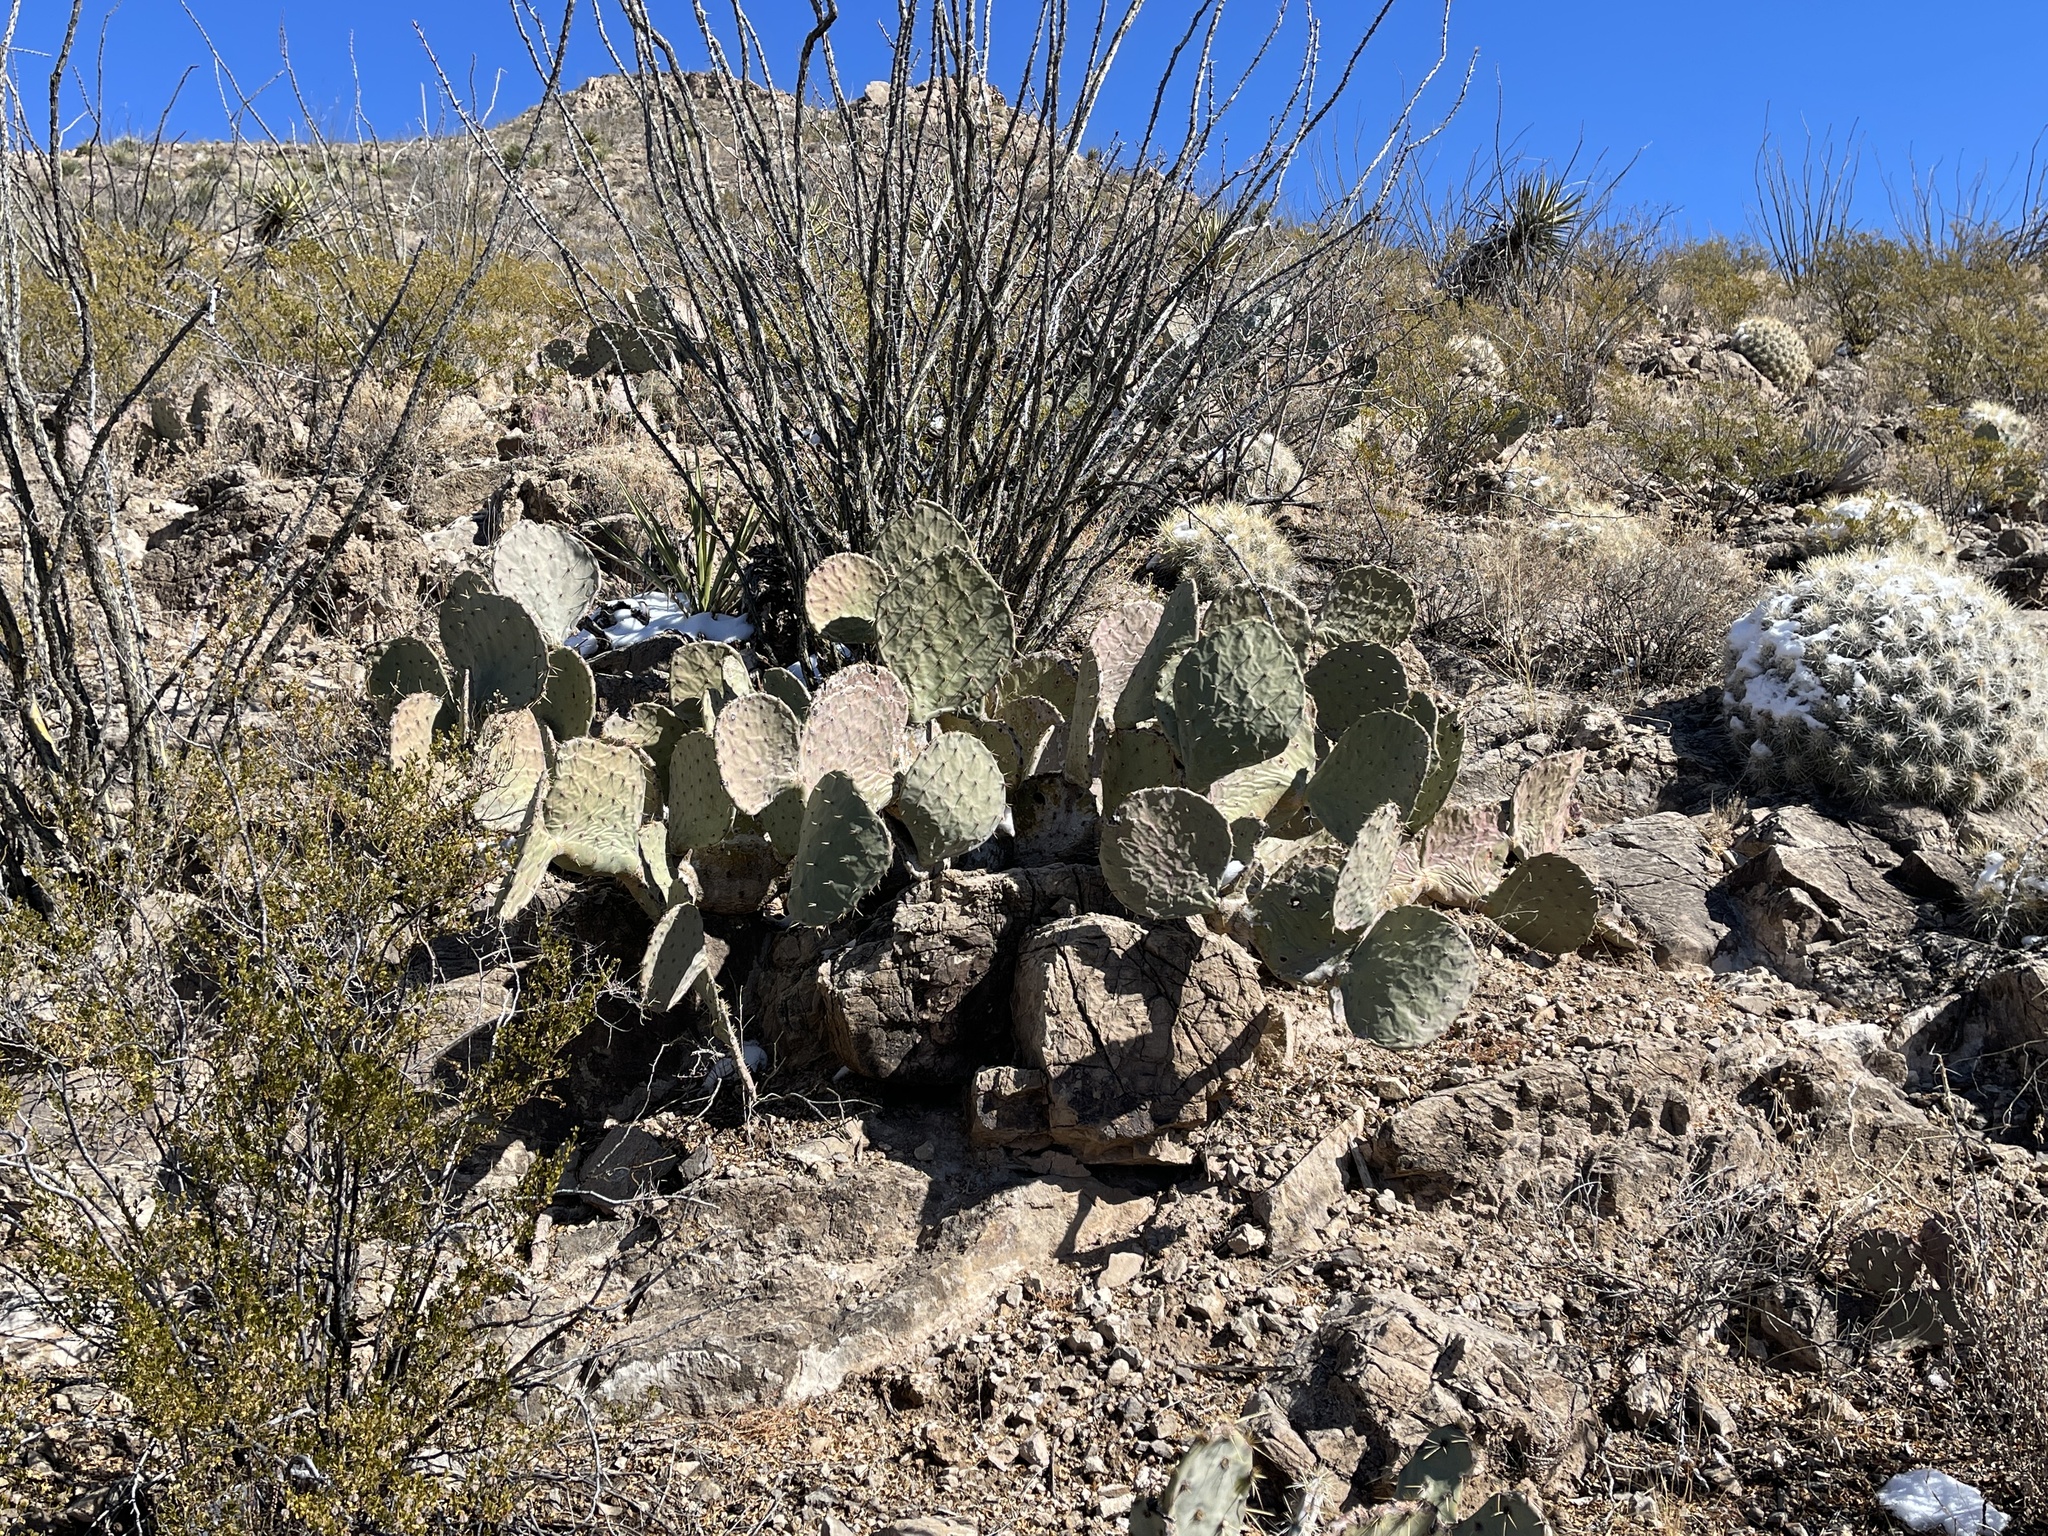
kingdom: Plantae
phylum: Tracheophyta
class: Magnoliopsida
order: Caryophyllales
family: Cactaceae
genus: Opuntia
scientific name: Opuntia orbiculata
